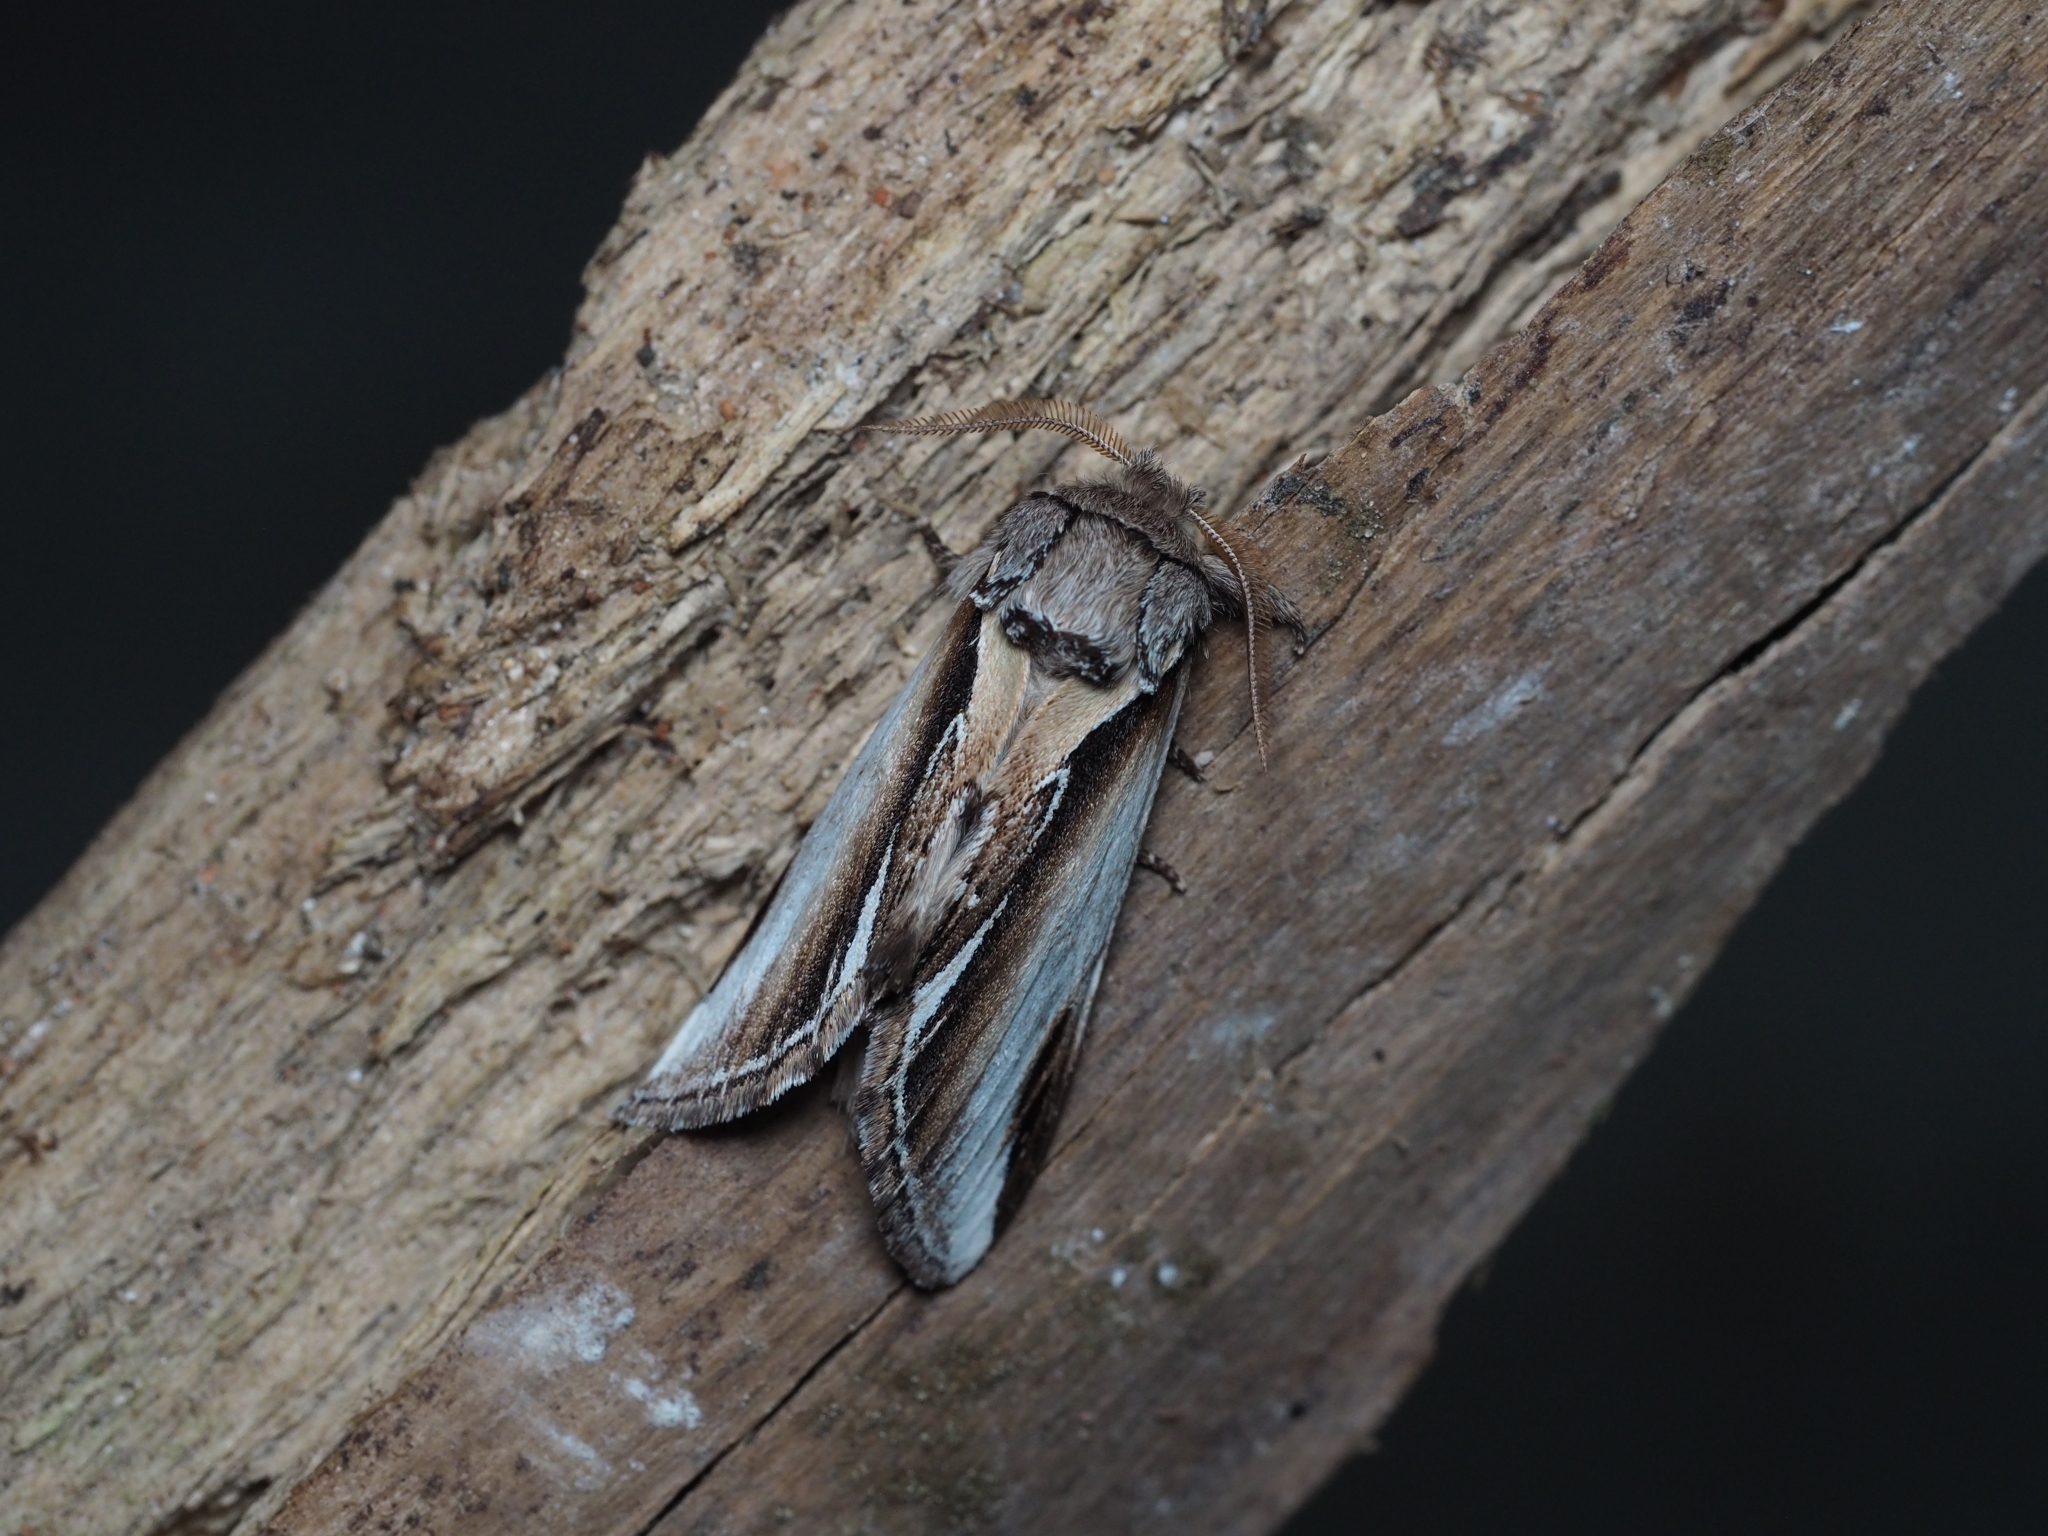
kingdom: Animalia
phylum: Arthropoda
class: Insecta
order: Lepidoptera
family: Notodontidae
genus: Pheosia
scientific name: Pheosia gnoma
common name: Lesser swallow prominent
